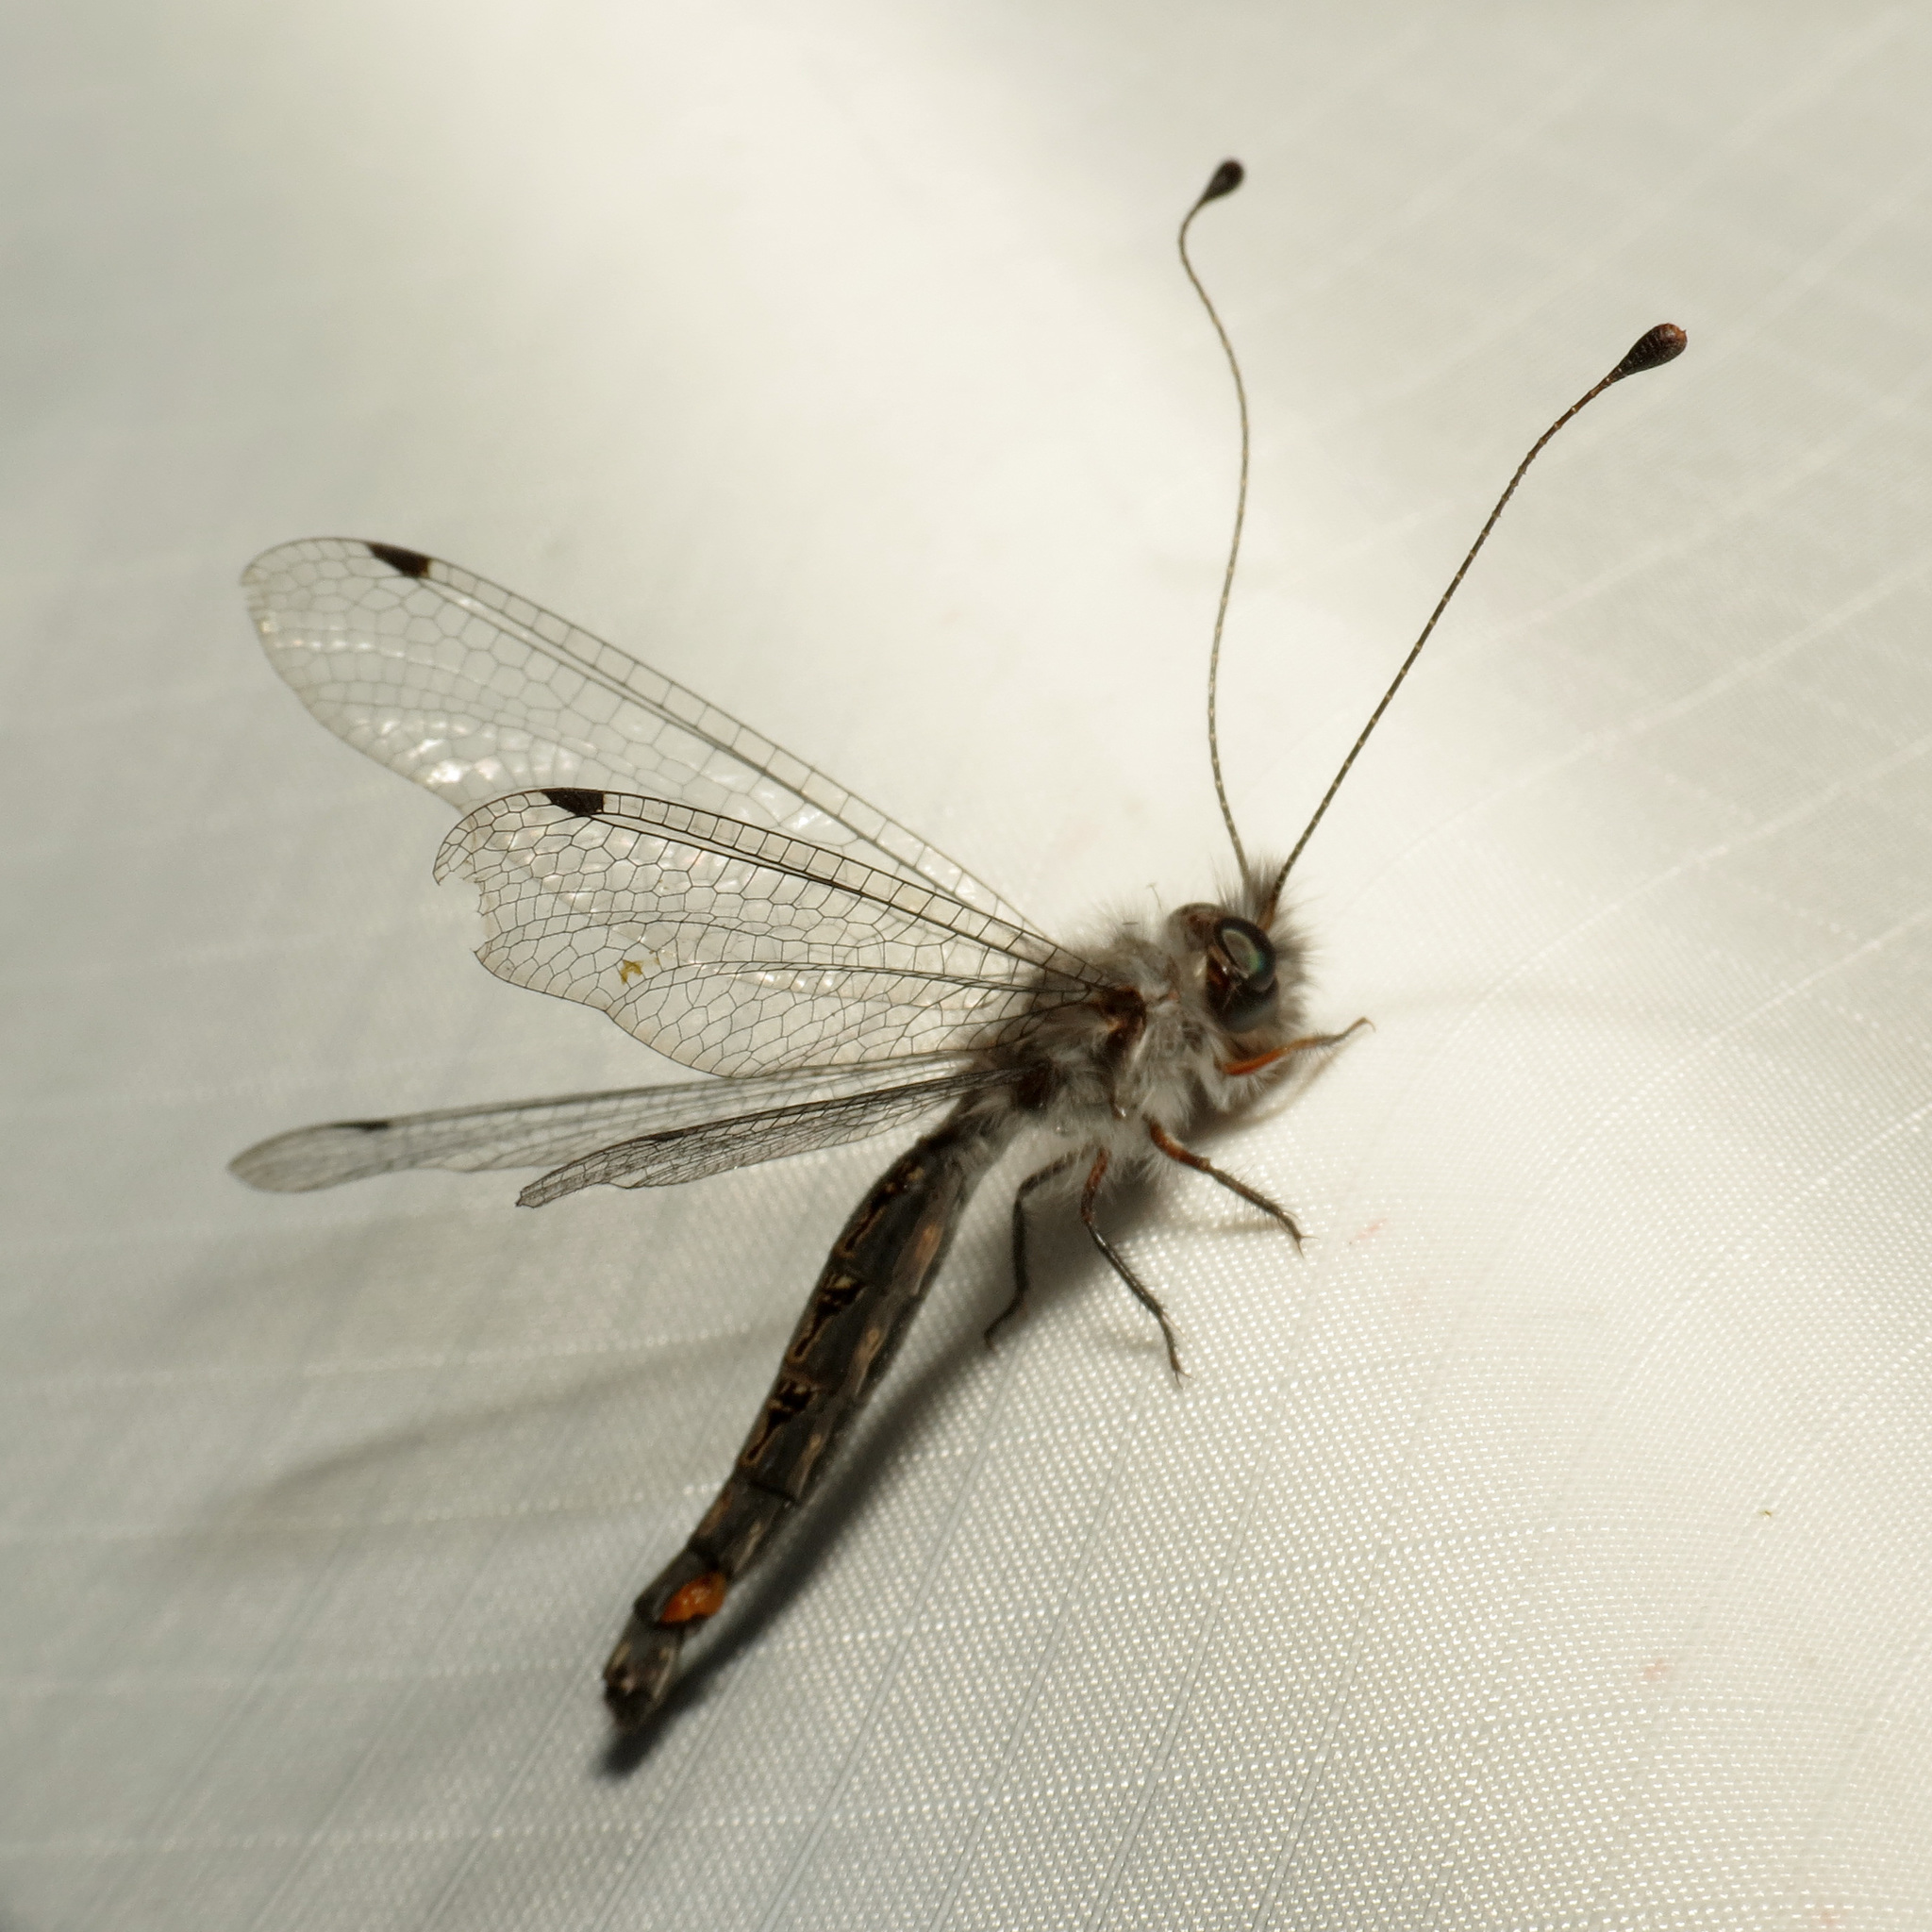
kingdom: Animalia
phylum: Arthropoda
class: Insecta
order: Neuroptera
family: Ascalaphidae
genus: Ululodes
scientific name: Ululodes mexicanus
